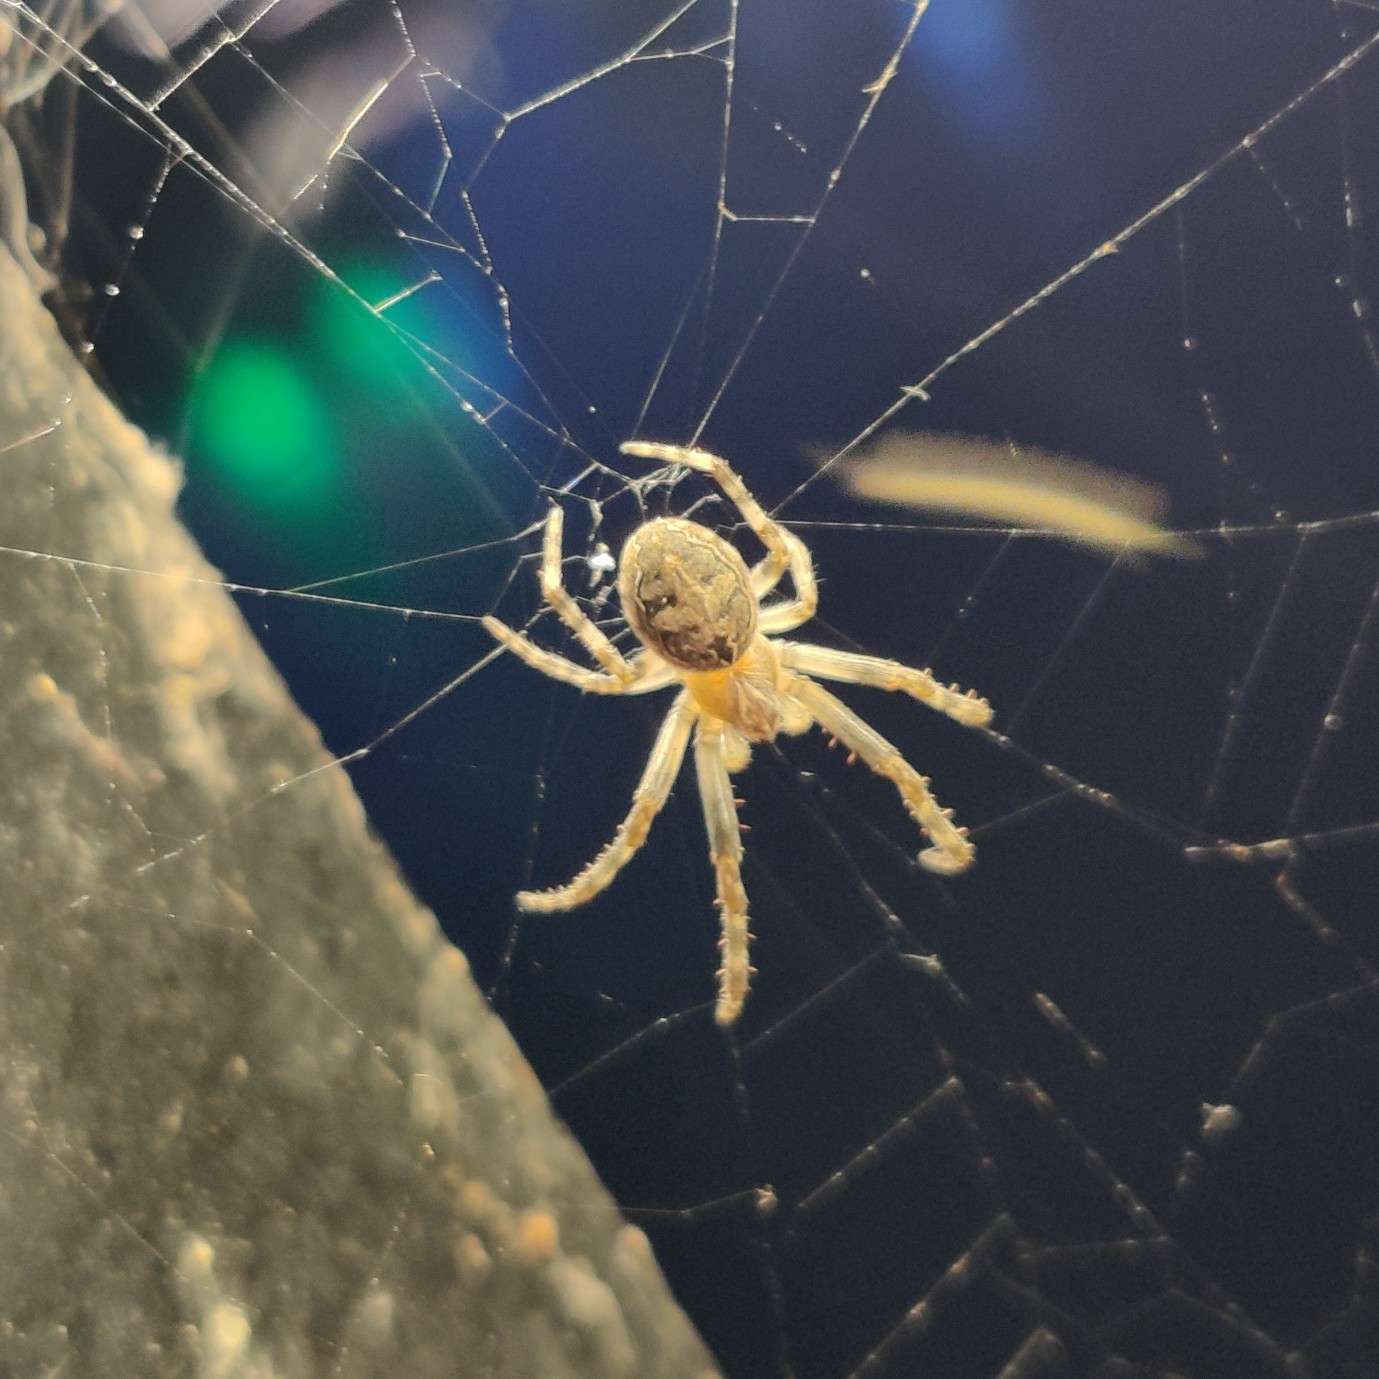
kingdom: Animalia
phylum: Arthropoda
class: Arachnida
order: Araneae
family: Araneidae
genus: Larinioides
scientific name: Larinioides sclopetarius
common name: Bridge orbweaver
